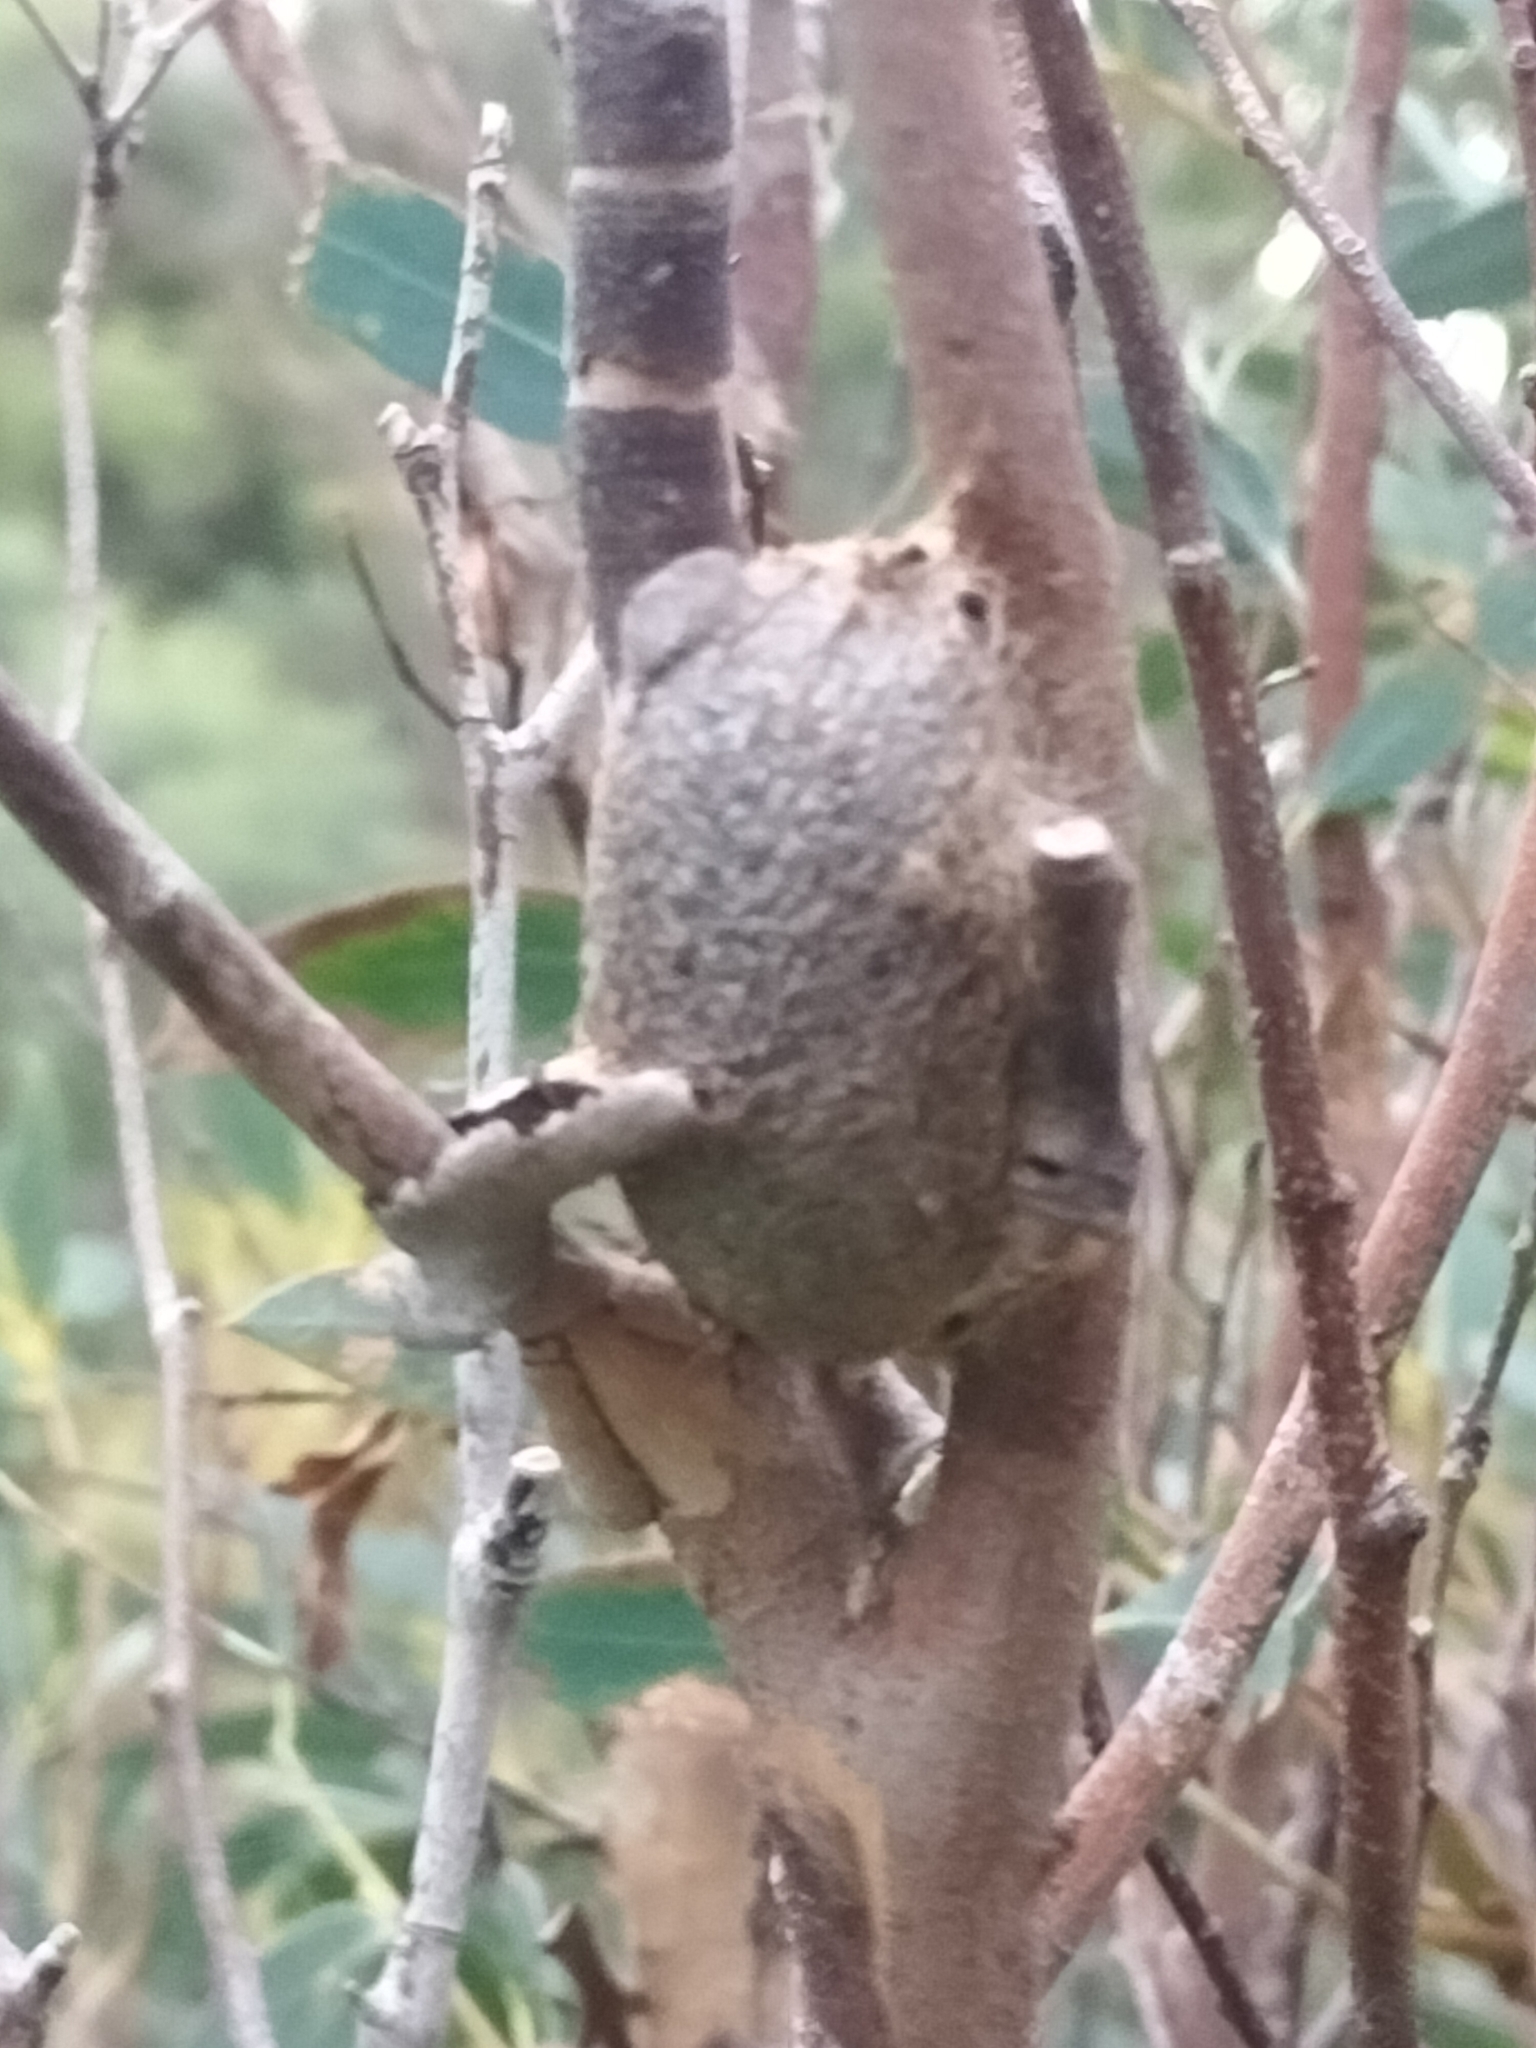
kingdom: Animalia
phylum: Arthropoda
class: Insecta
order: Lepidoptera
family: Saturniidae
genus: Opodiphthera
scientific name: Opodiphthera
